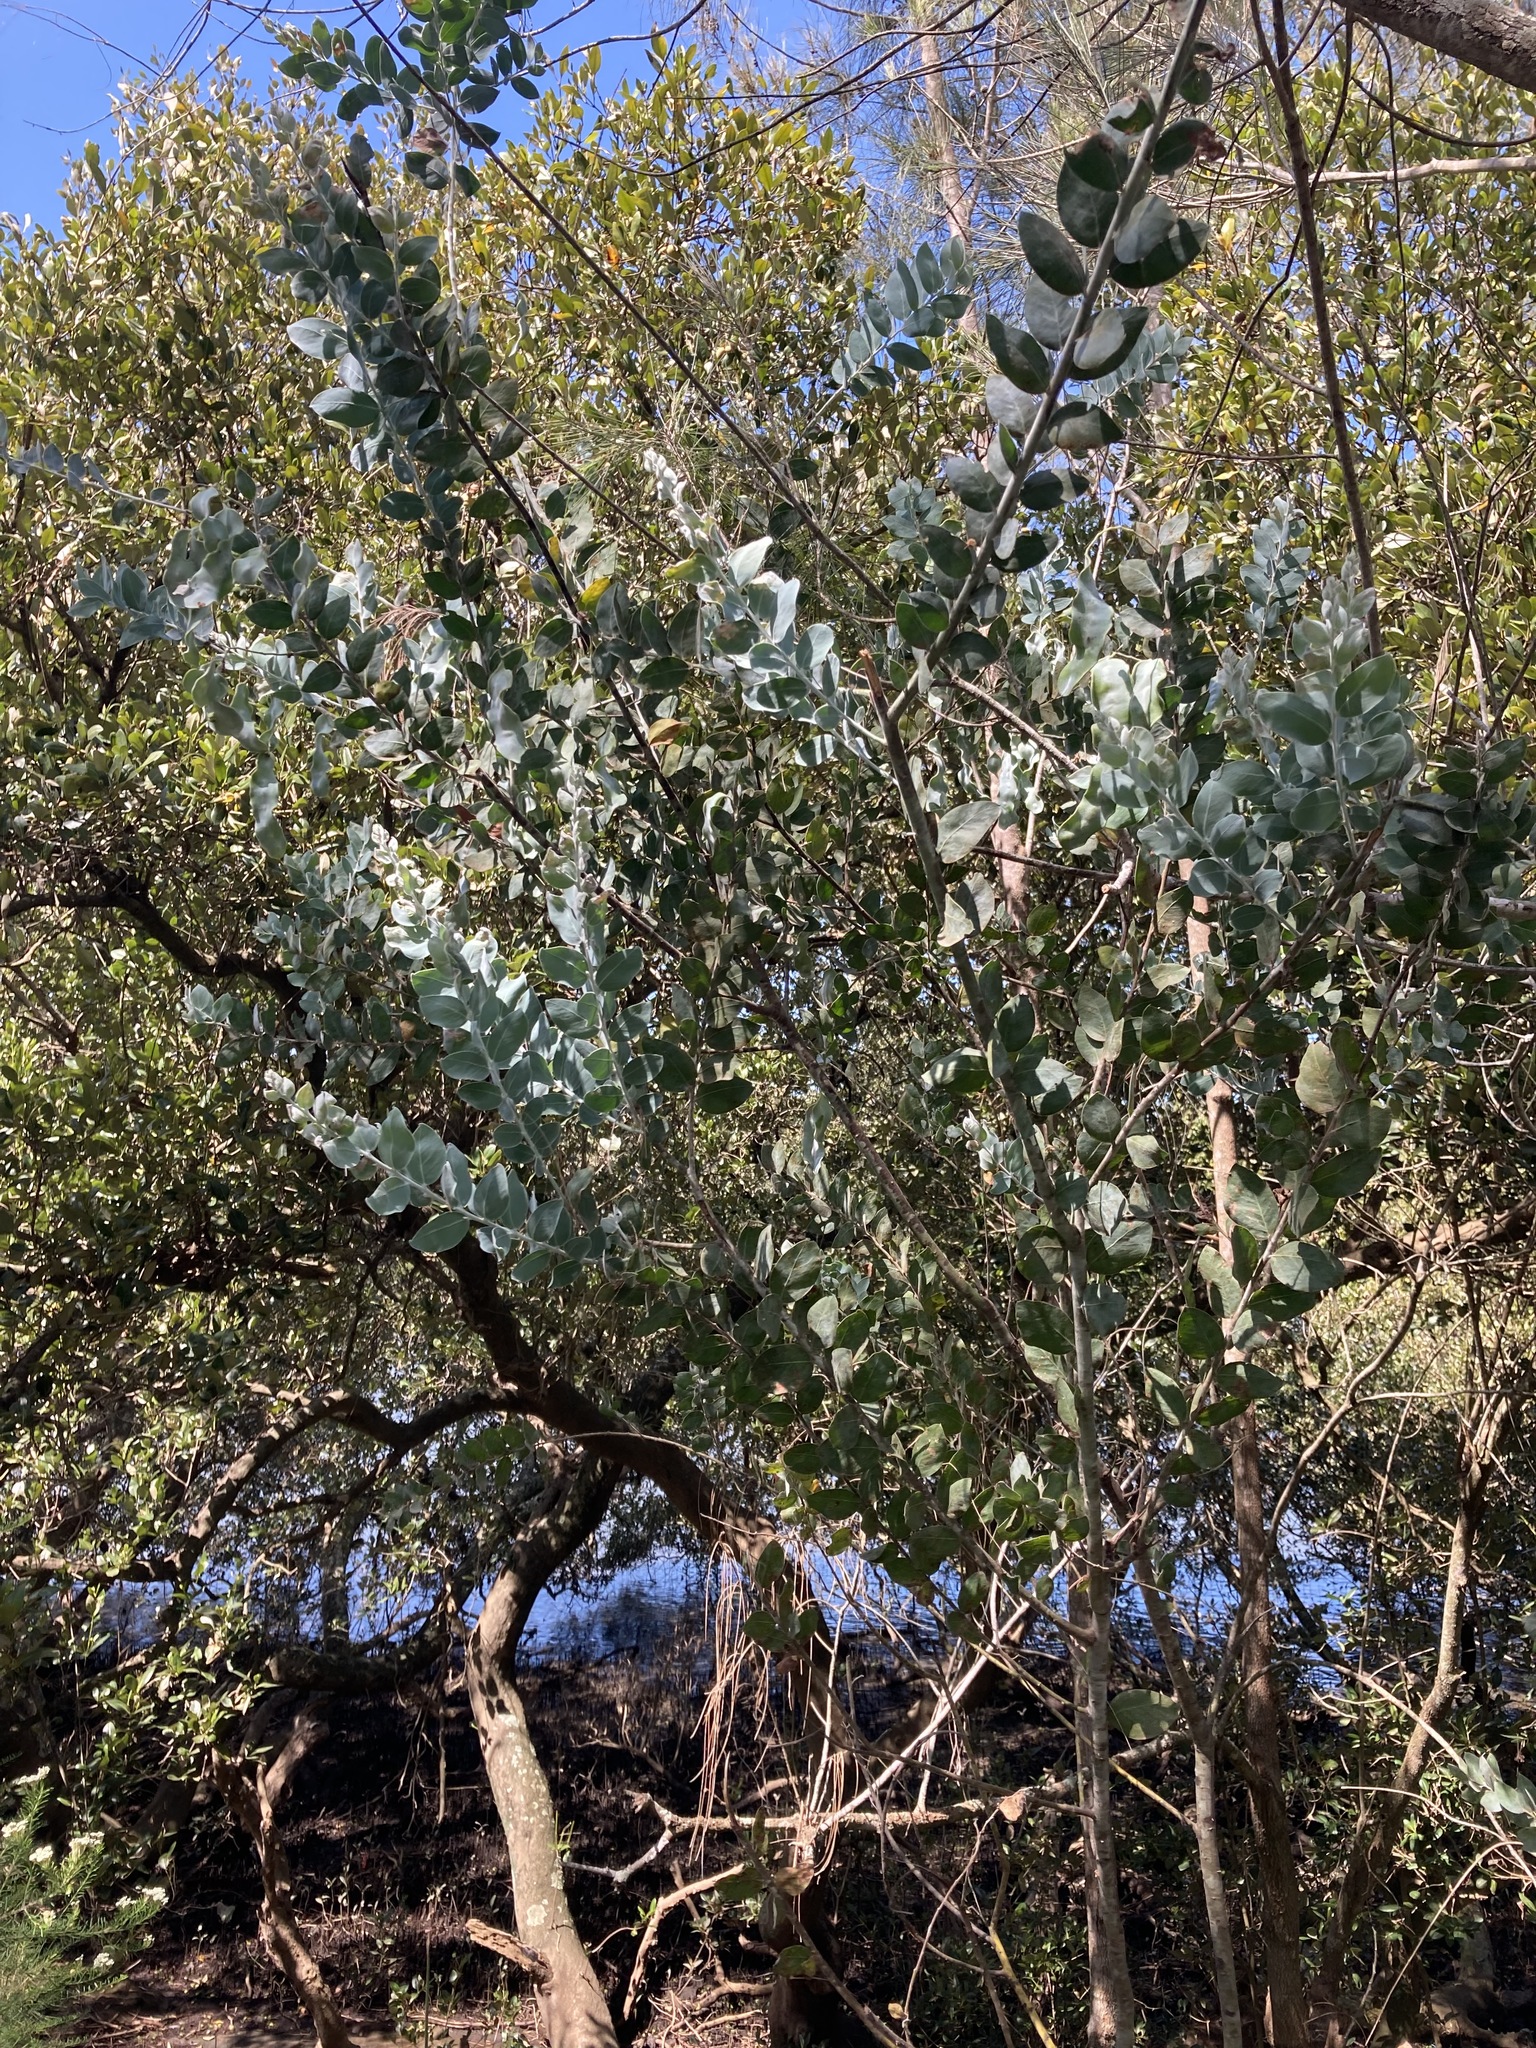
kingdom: Plantae
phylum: Tracheophyta
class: Magnoliopsida
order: Fabales
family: Fabaceae
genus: Acacia
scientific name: Acacia podalyriifolia
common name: Pearl wattle
